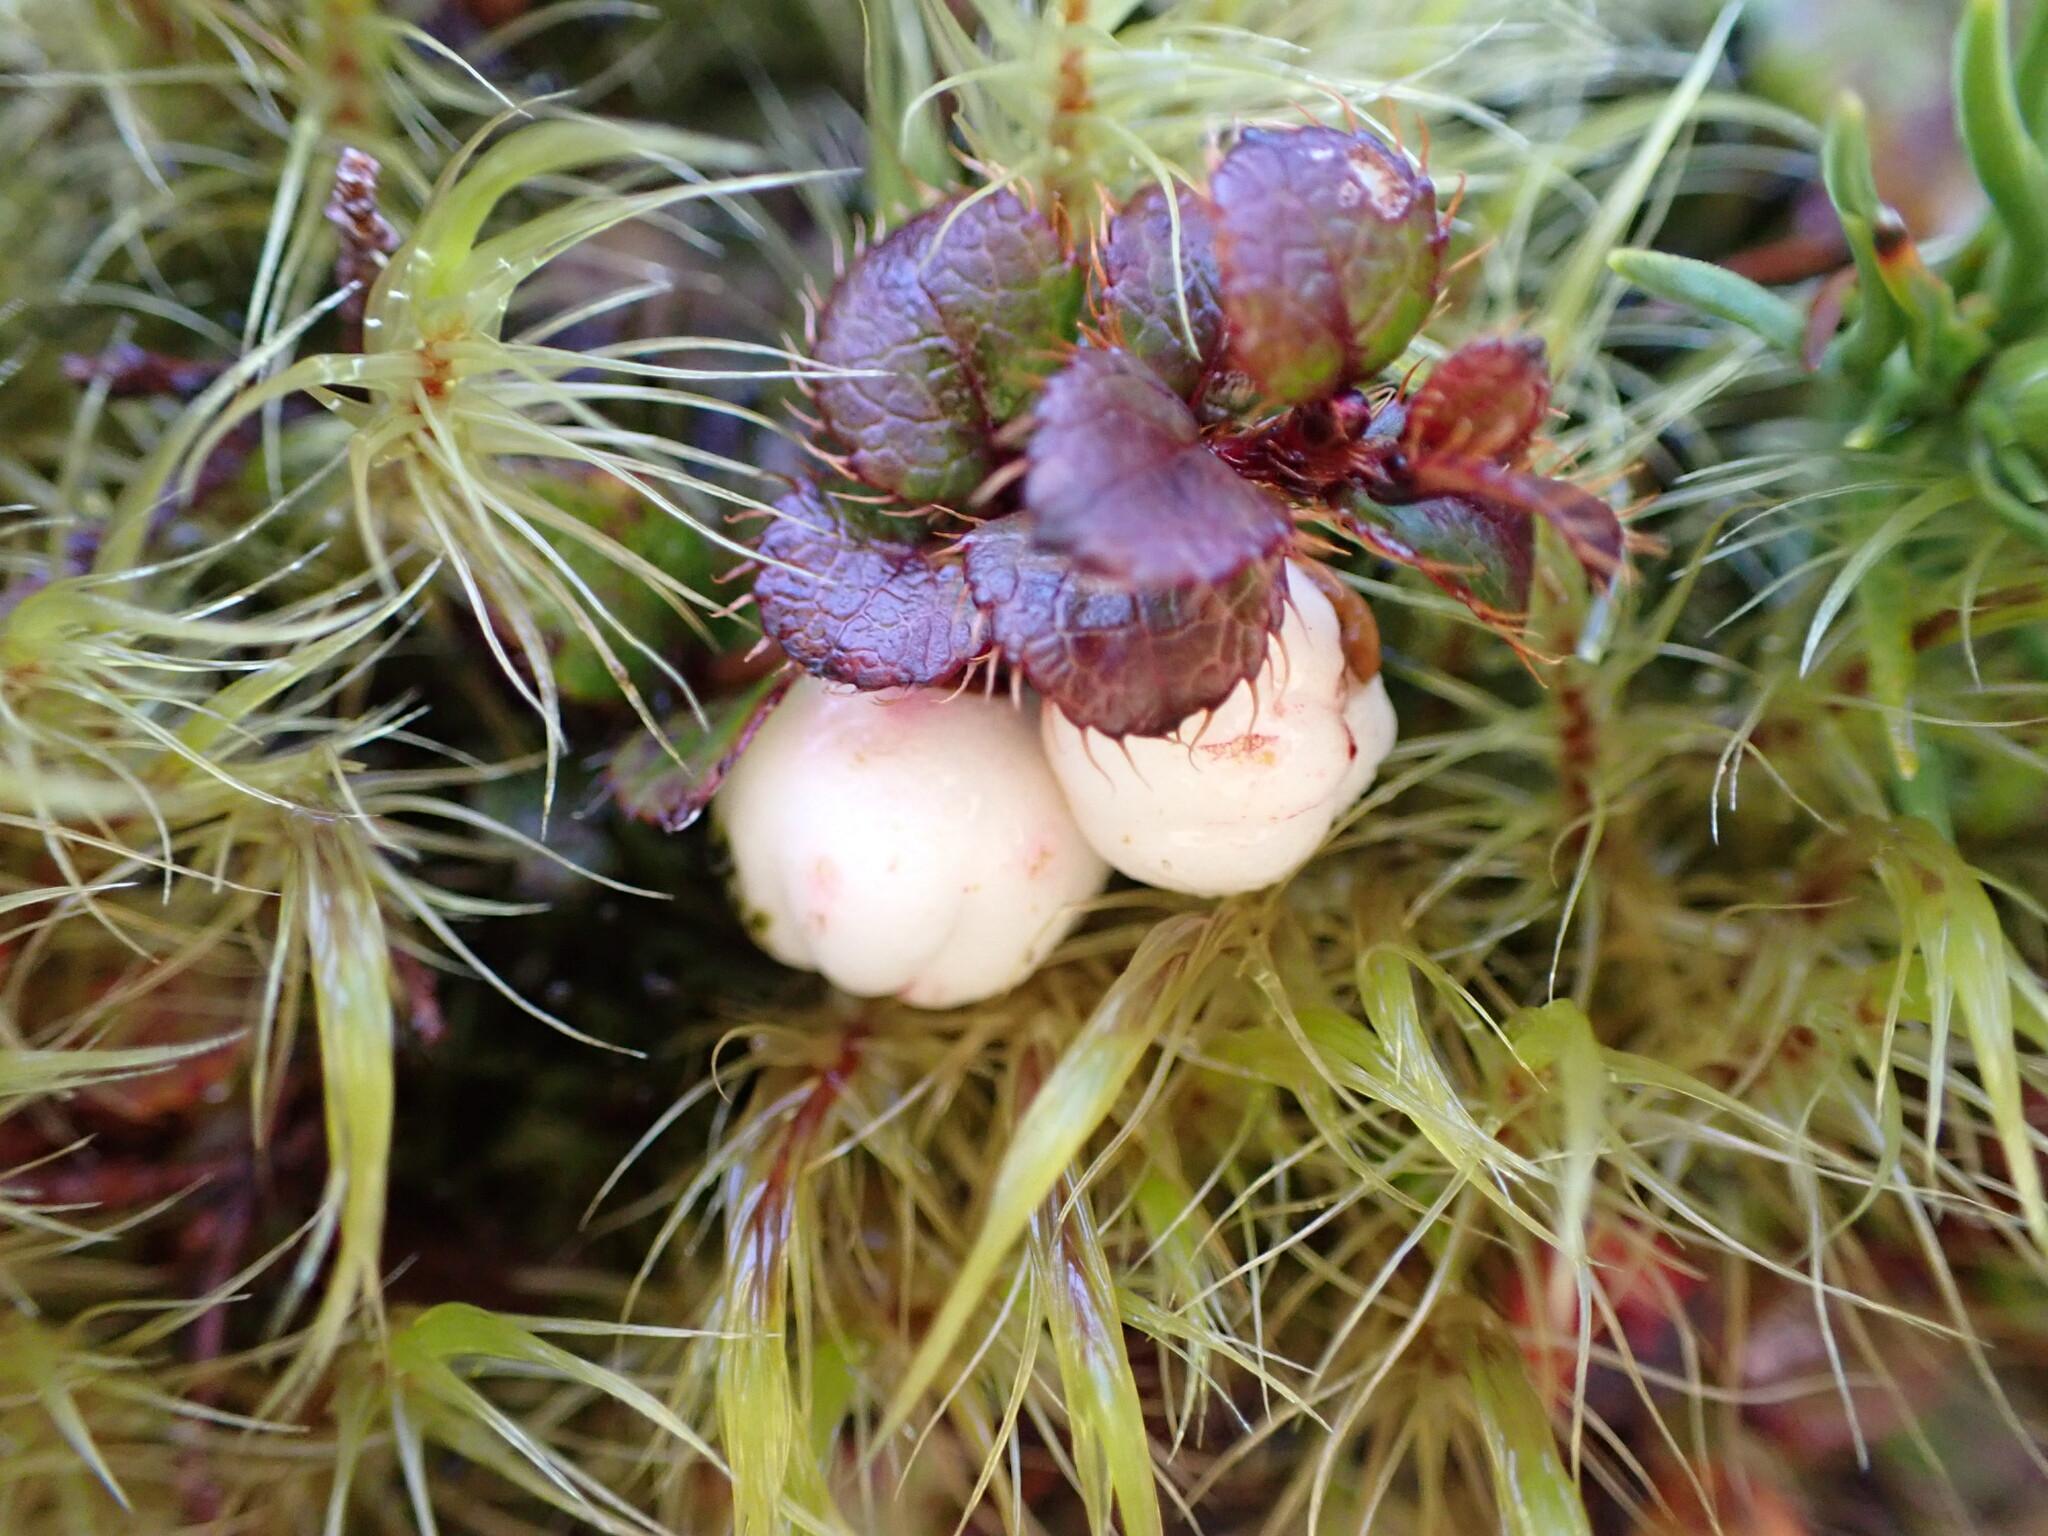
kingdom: Plantae
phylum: Tracheophyta
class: Magnoliopsida
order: Ericales
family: Ericaceae
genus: Gaultheria
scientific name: Gaultheria depressa
